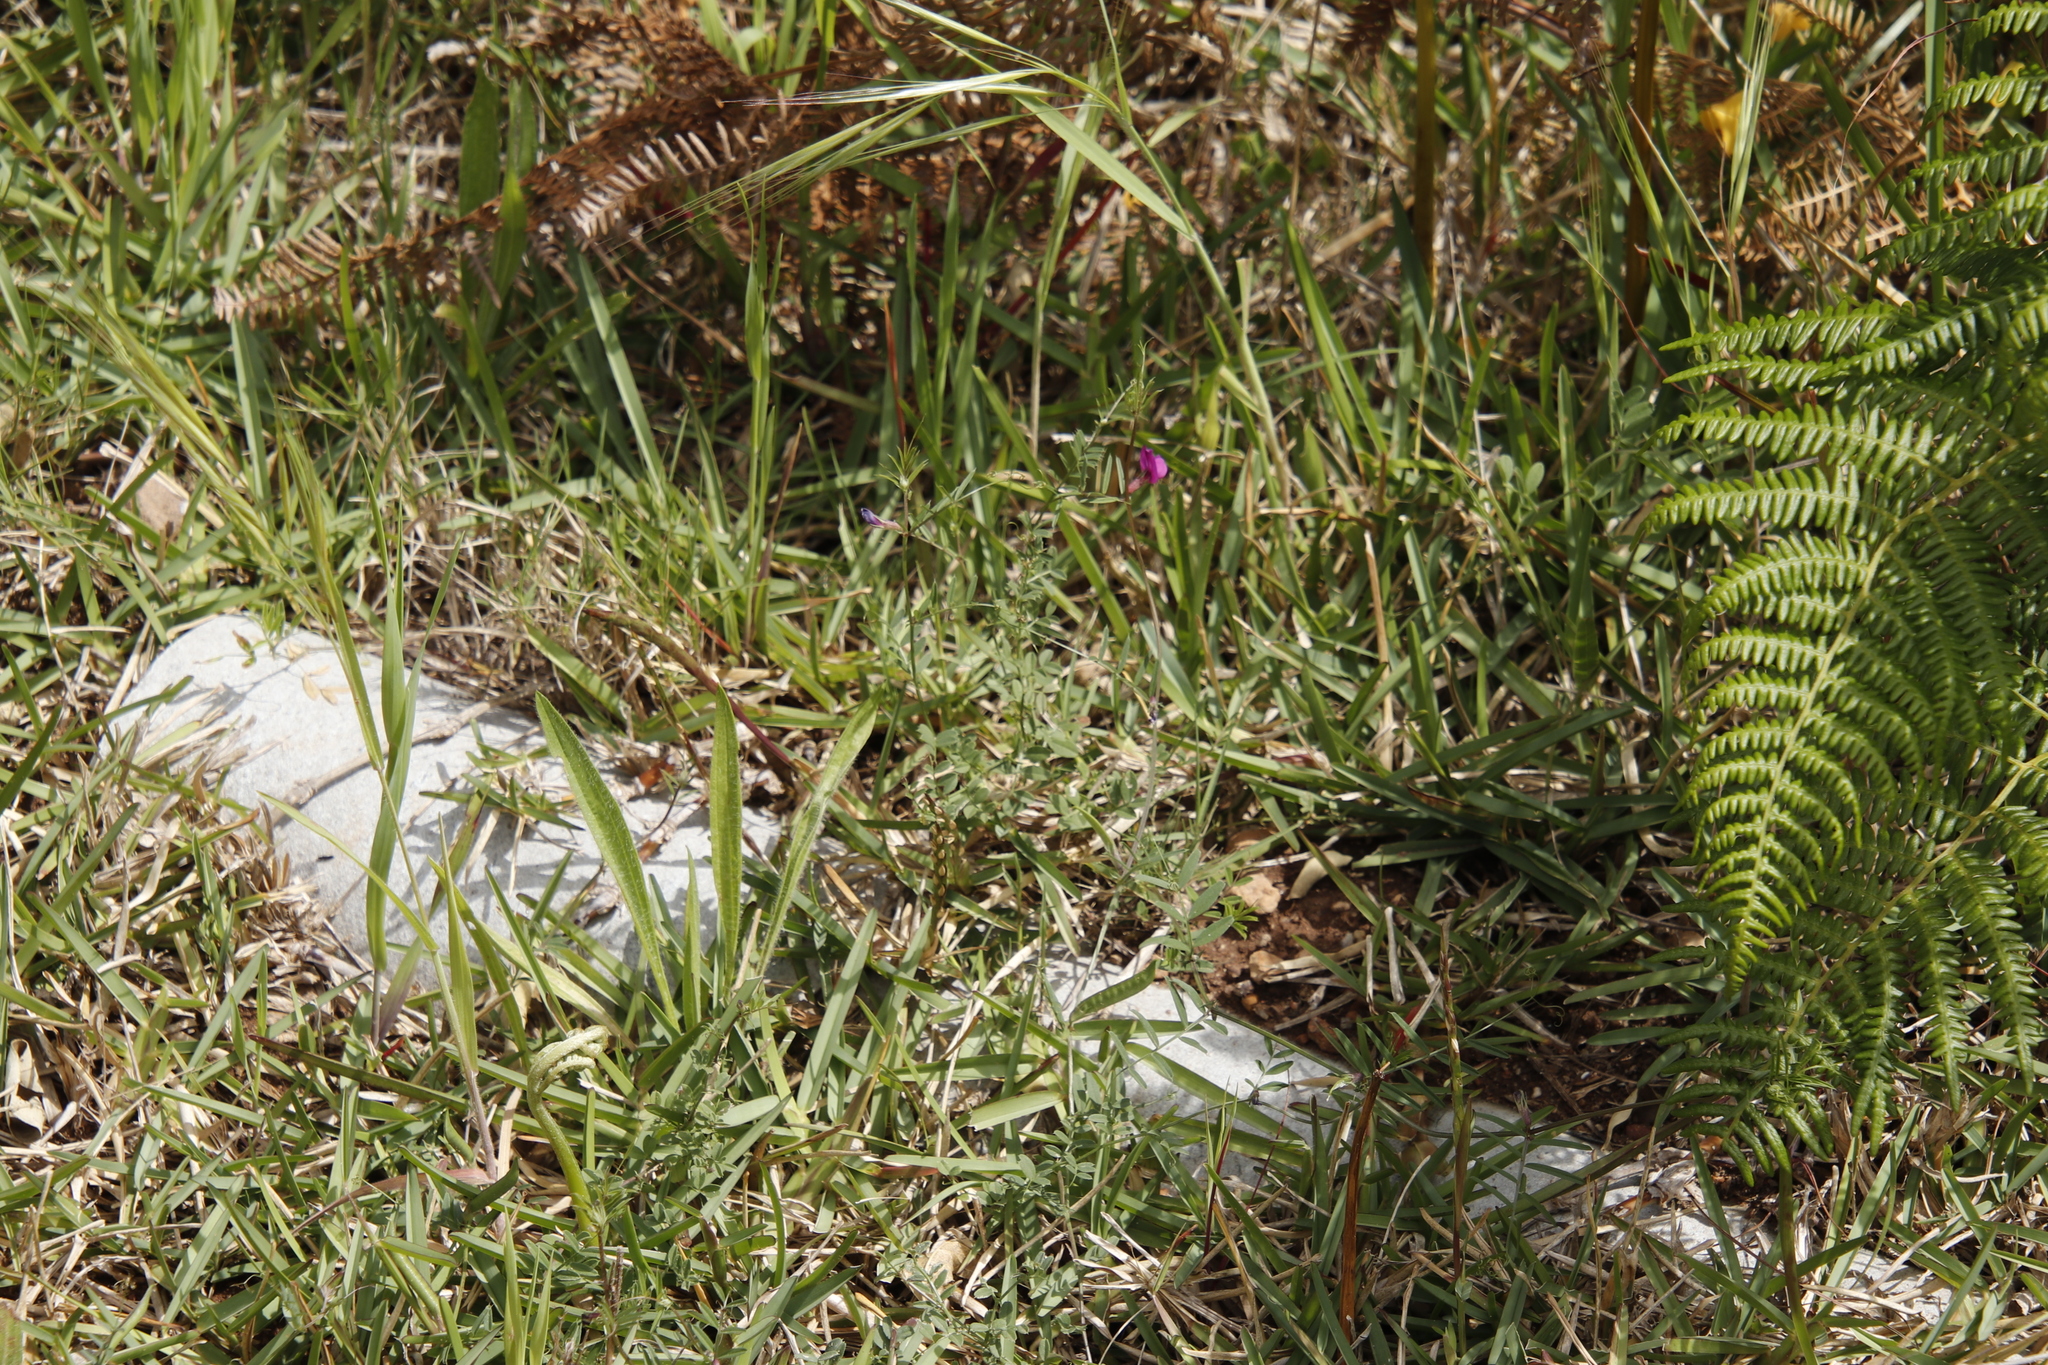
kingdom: Plantae
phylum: Tracheophyta
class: Liliopsida
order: Poales
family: Poaceae
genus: Stenotaphrum
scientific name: Stenotaphrum secundatum
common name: St. augustine grass
